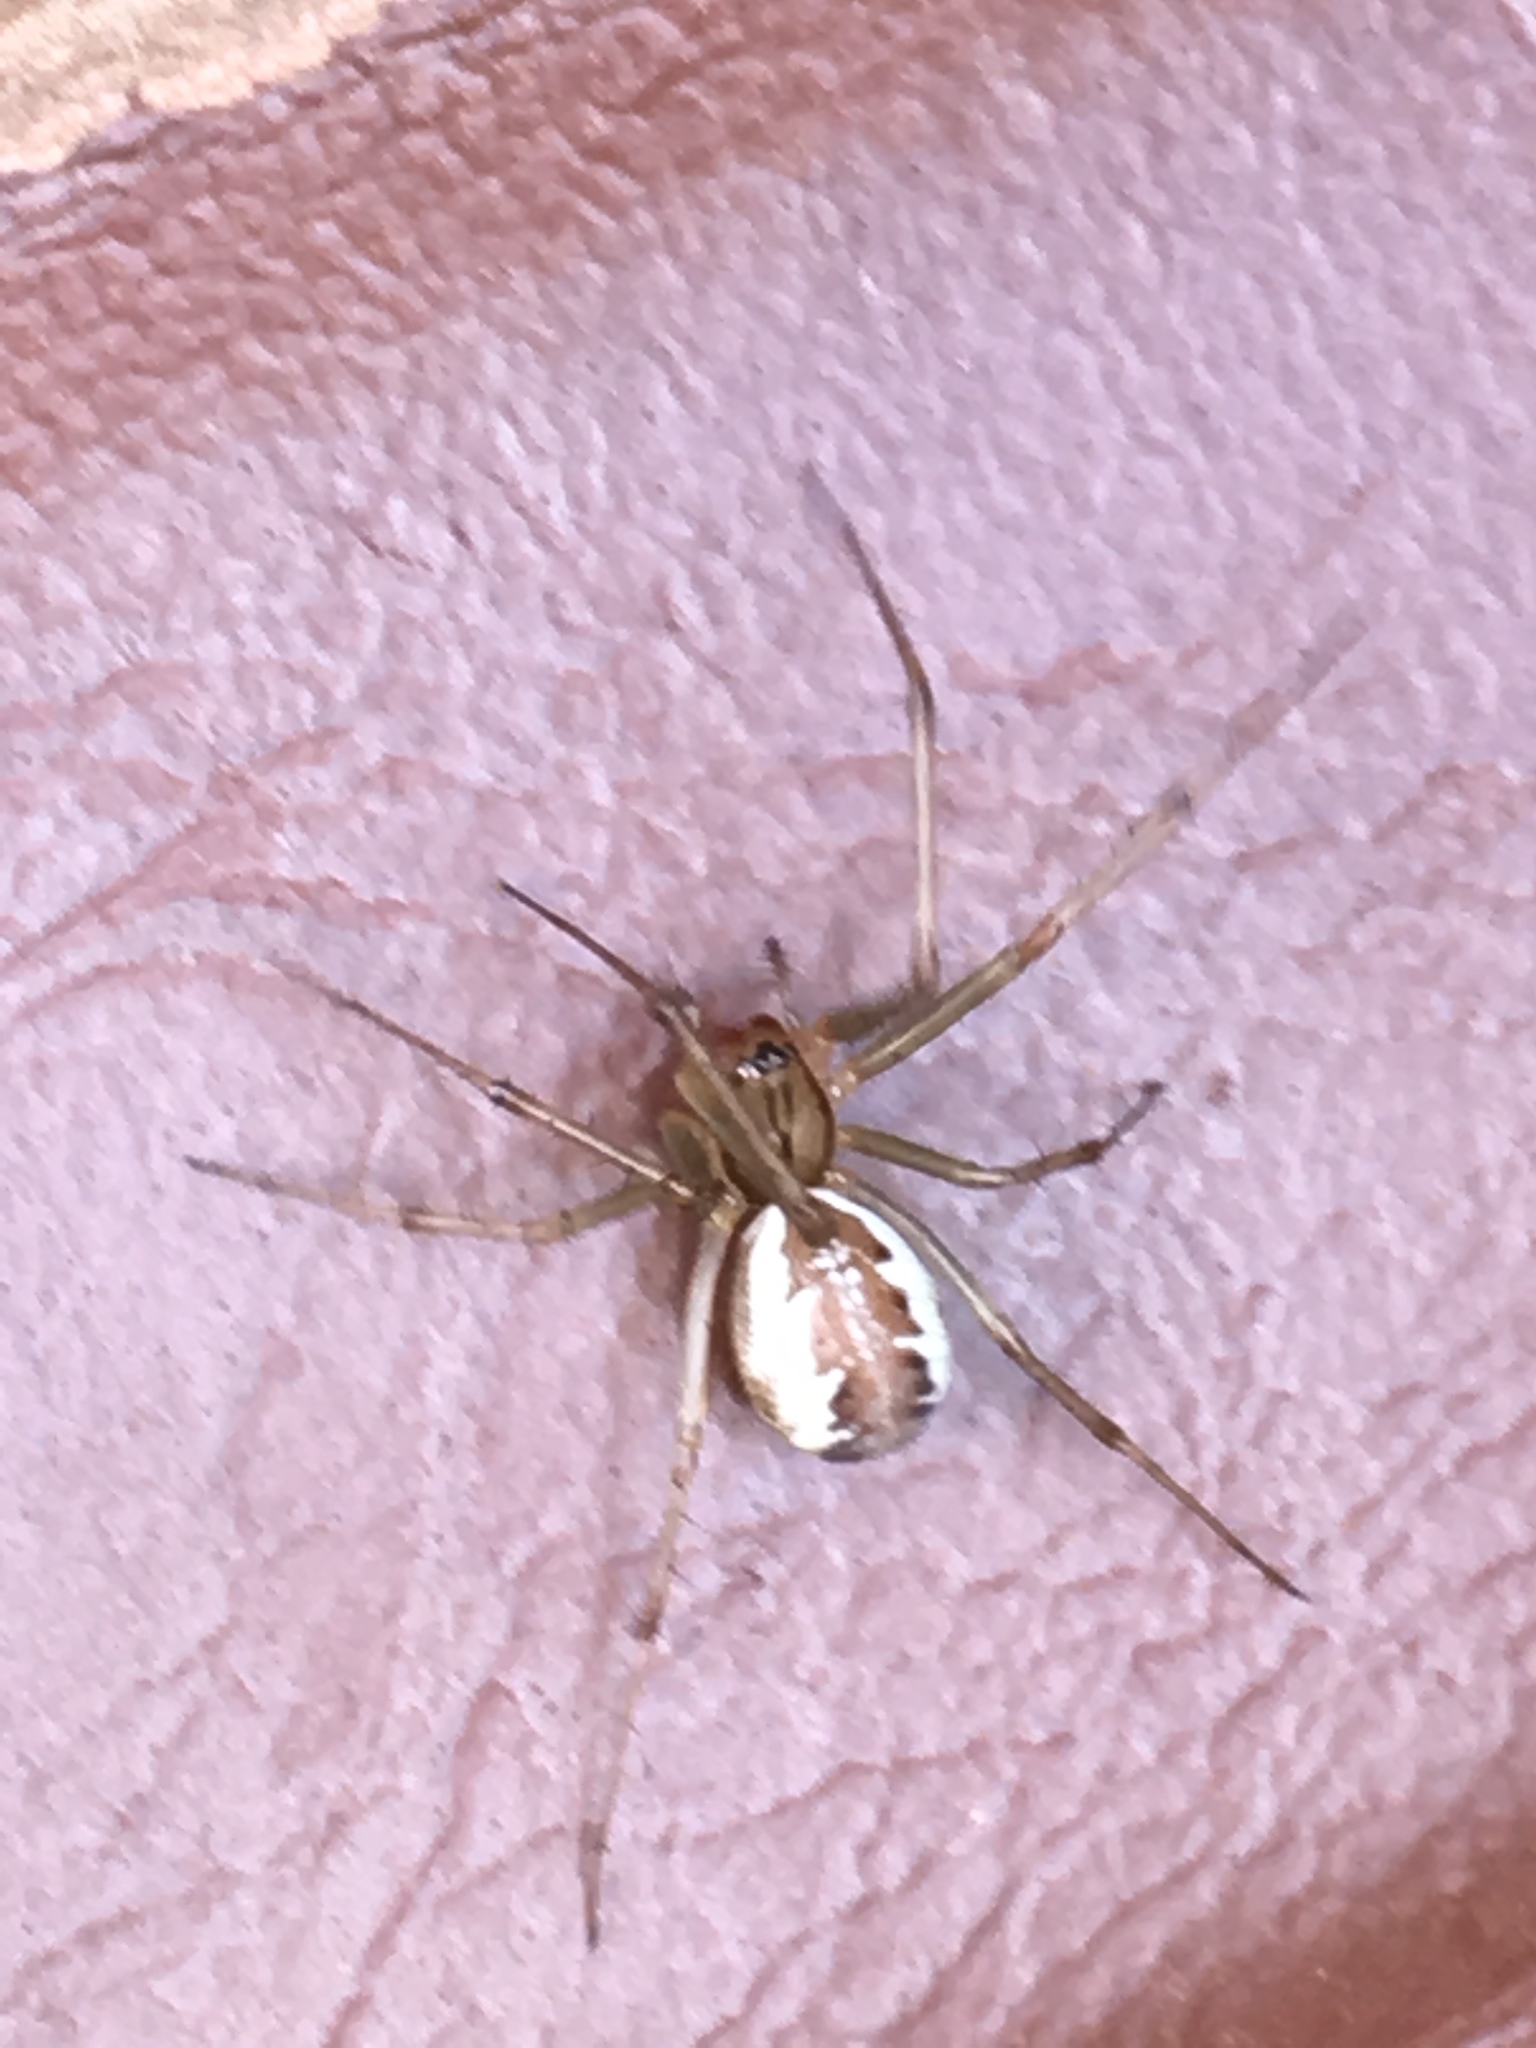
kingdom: Animalia
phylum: Arthropoda
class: Arachnida
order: Araneae
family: Linyphiidae
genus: Linyphia
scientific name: Linyphia triangularis
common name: Money spider
